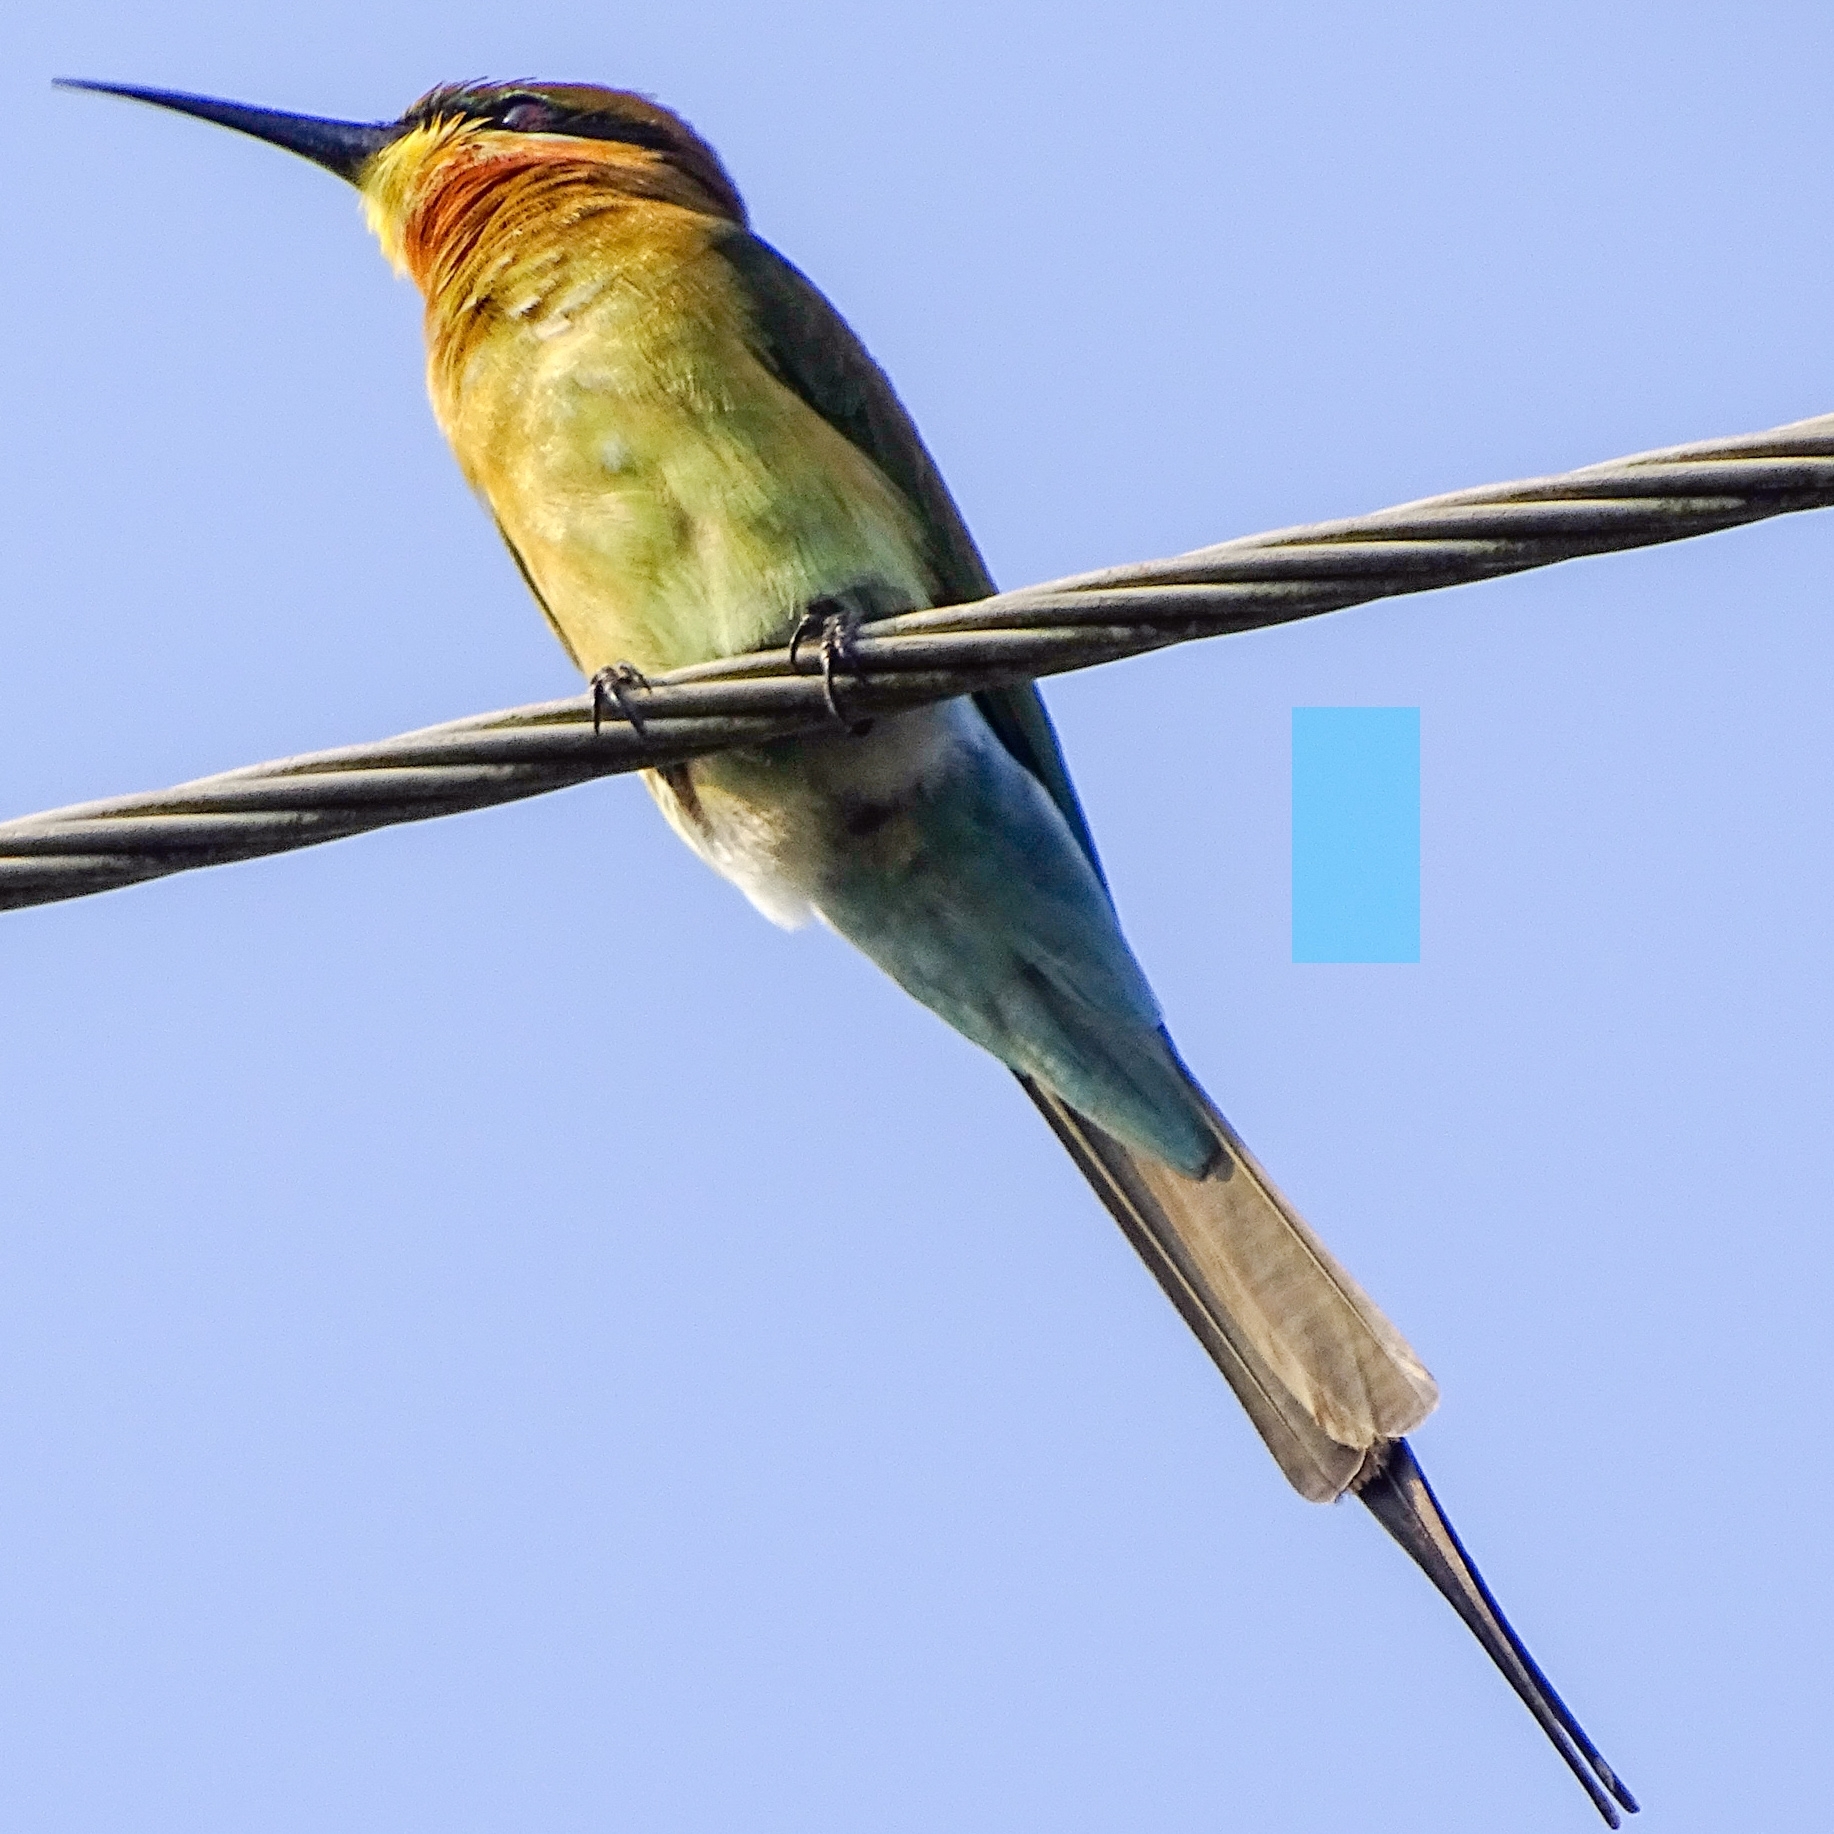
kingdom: Animalia
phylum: Chordata
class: Aves
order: Coraciiformes
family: Meropidae
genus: Merops
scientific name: Merops philippinus
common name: Blue-tailed bee-eater
